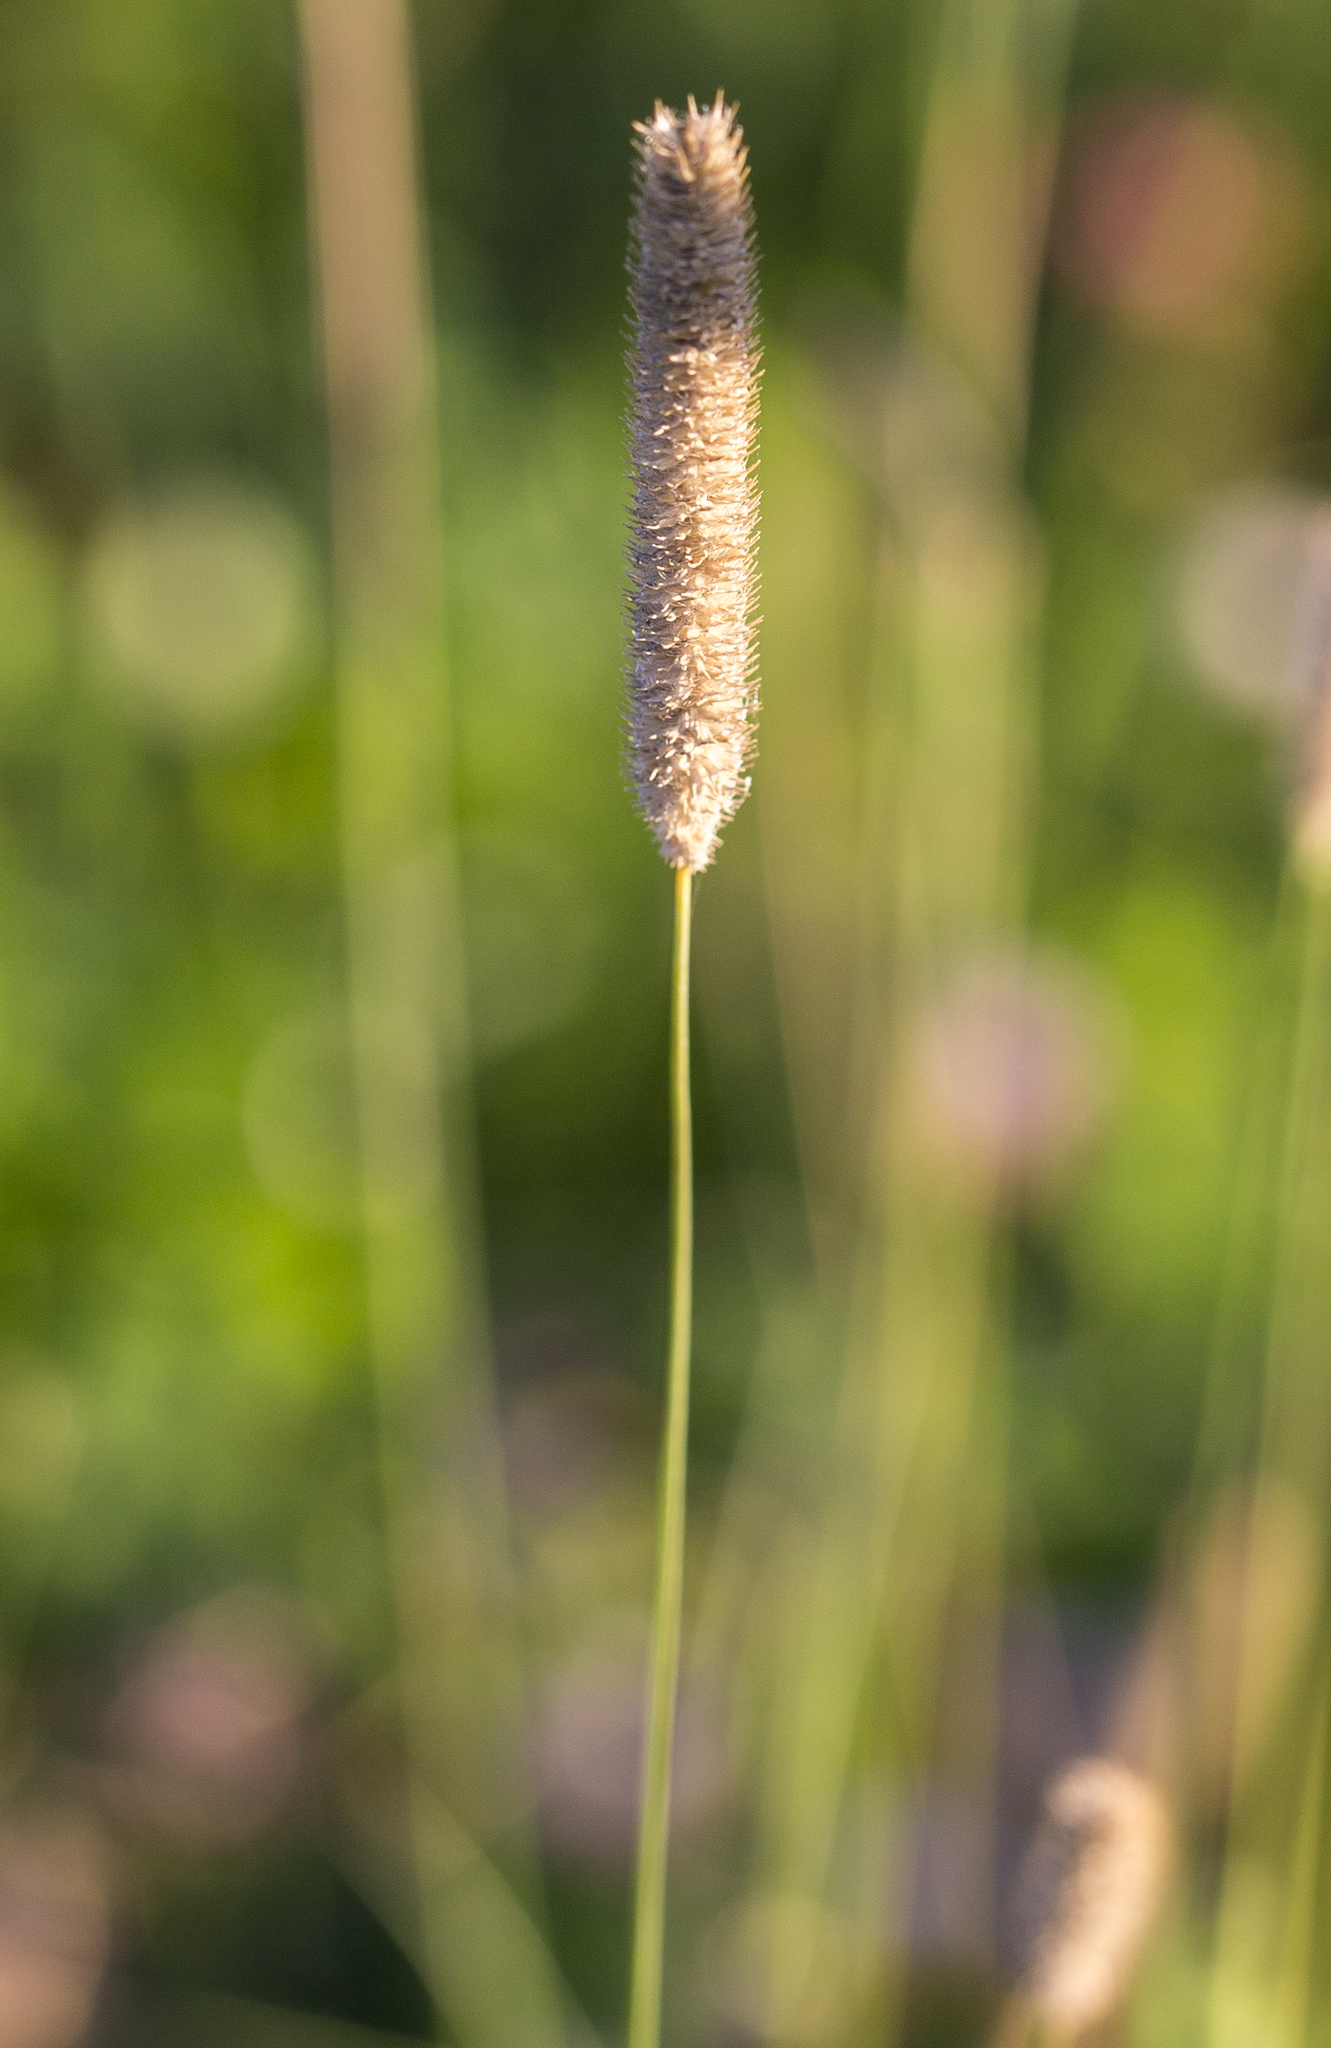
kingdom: Plantae
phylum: Tracheophyta
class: Liliopsida
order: Poales
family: Poaceae
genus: Phleum
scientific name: Phleum pratense
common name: Timothy grass
